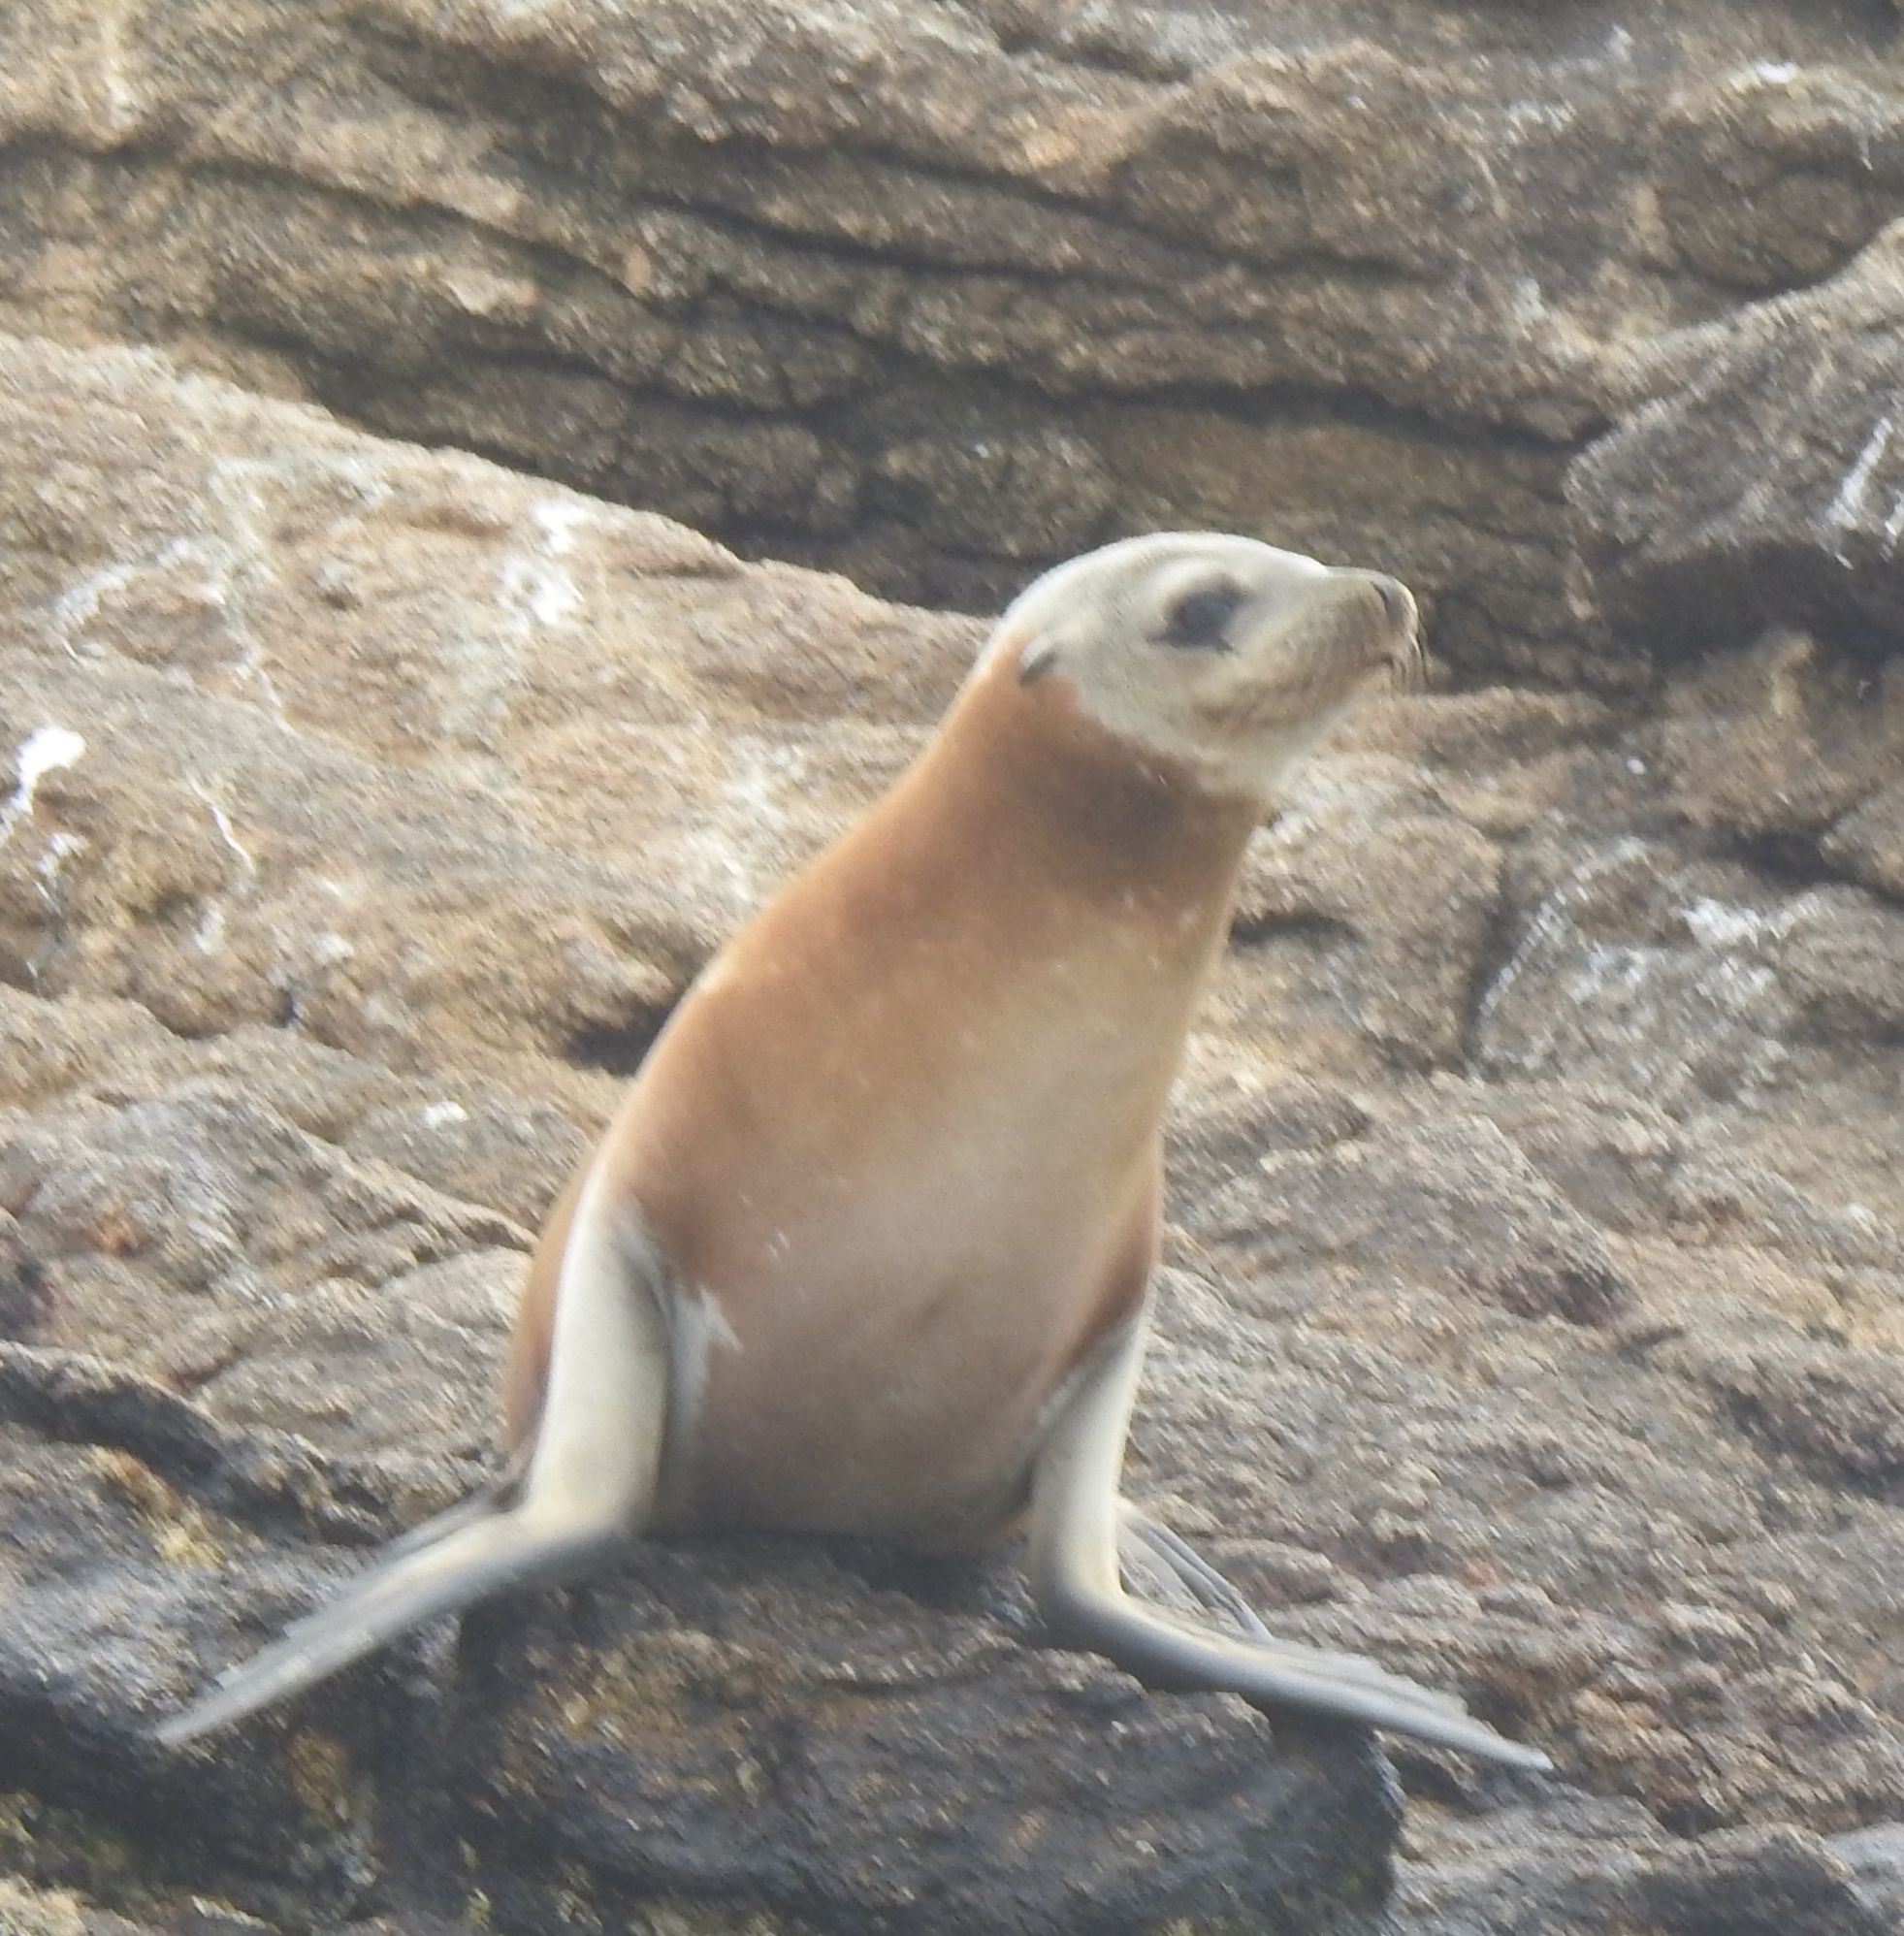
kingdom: Animalia
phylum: Chordata
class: Mammalia
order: Carnivora
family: Otariidae
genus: Zalophus
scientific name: Zalophus californianus
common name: California sea lion
